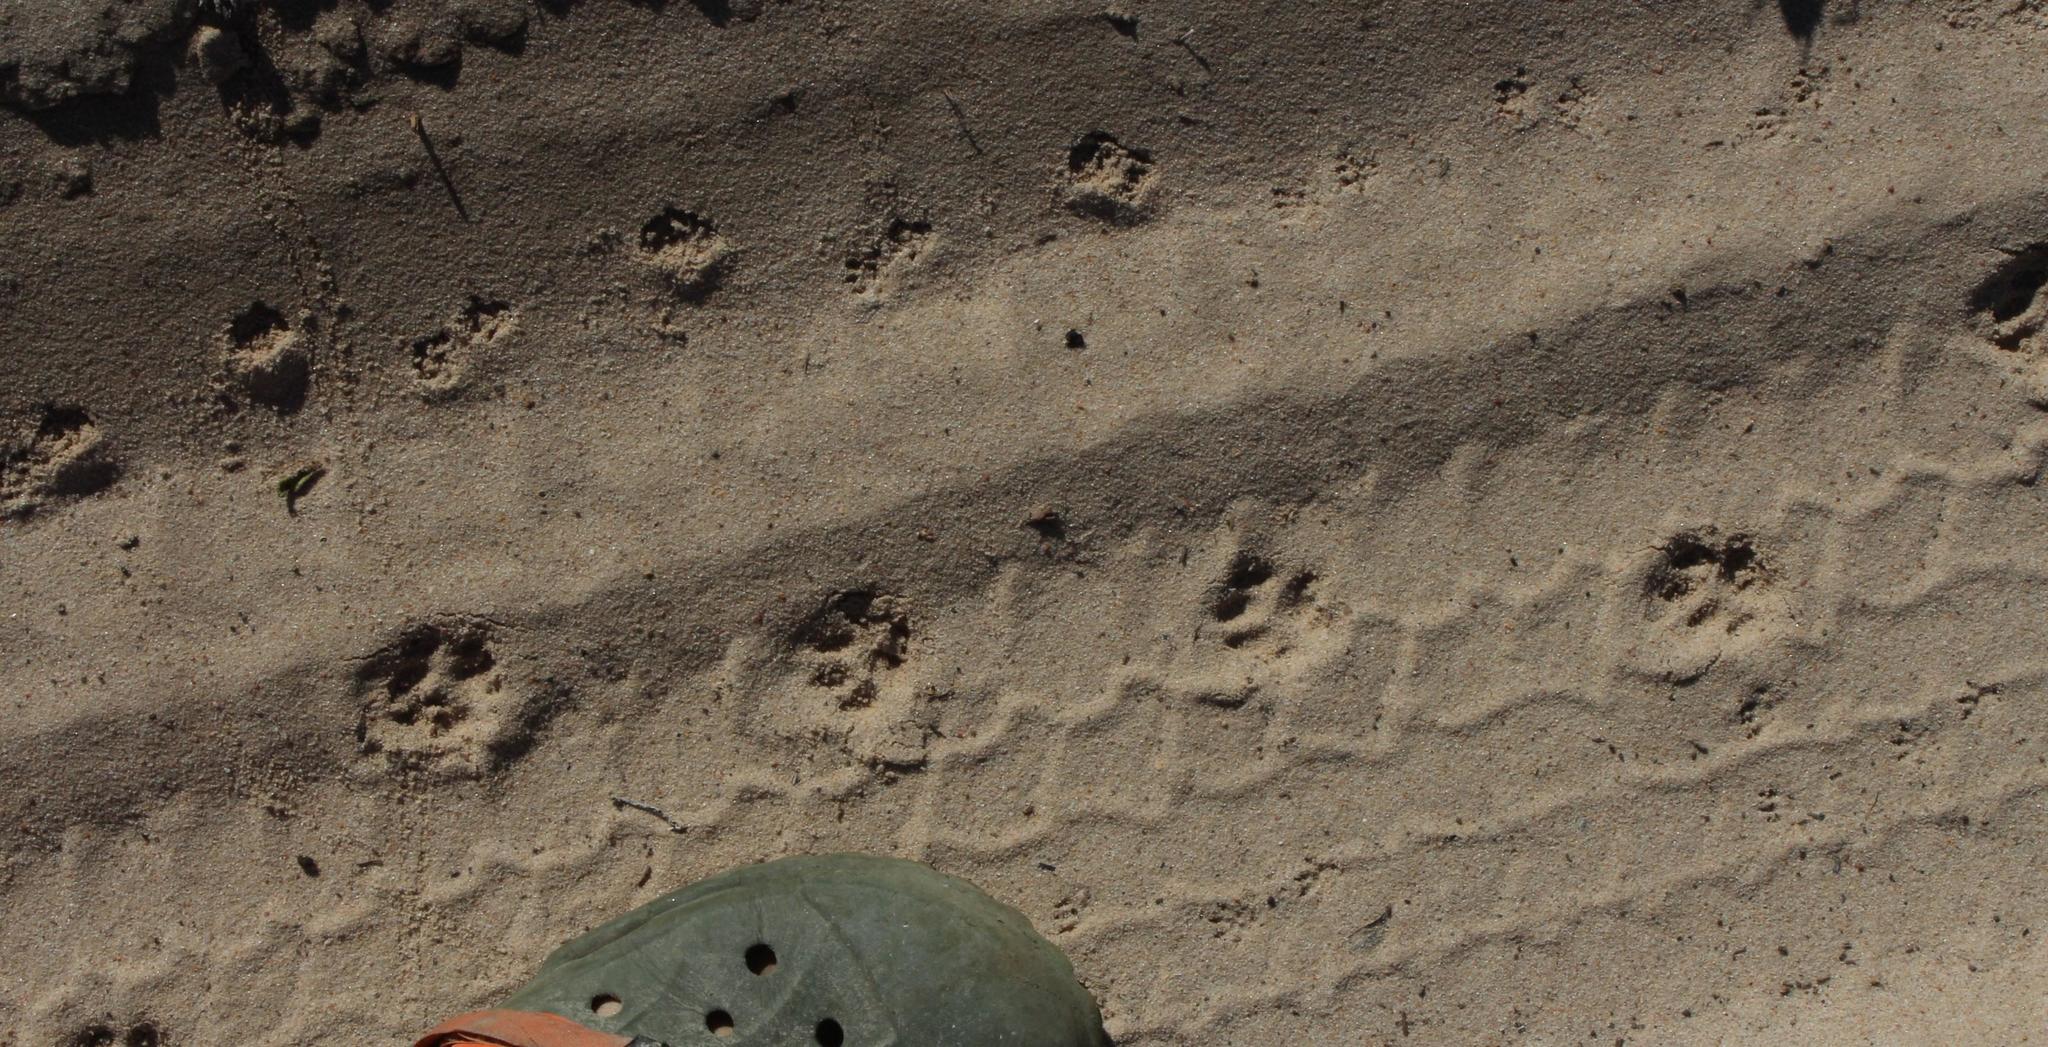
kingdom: Animalia
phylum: Chordata
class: Mammalia
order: Carnivora
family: Felidae
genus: Felis
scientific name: Felis silvestris
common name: Wildcat
